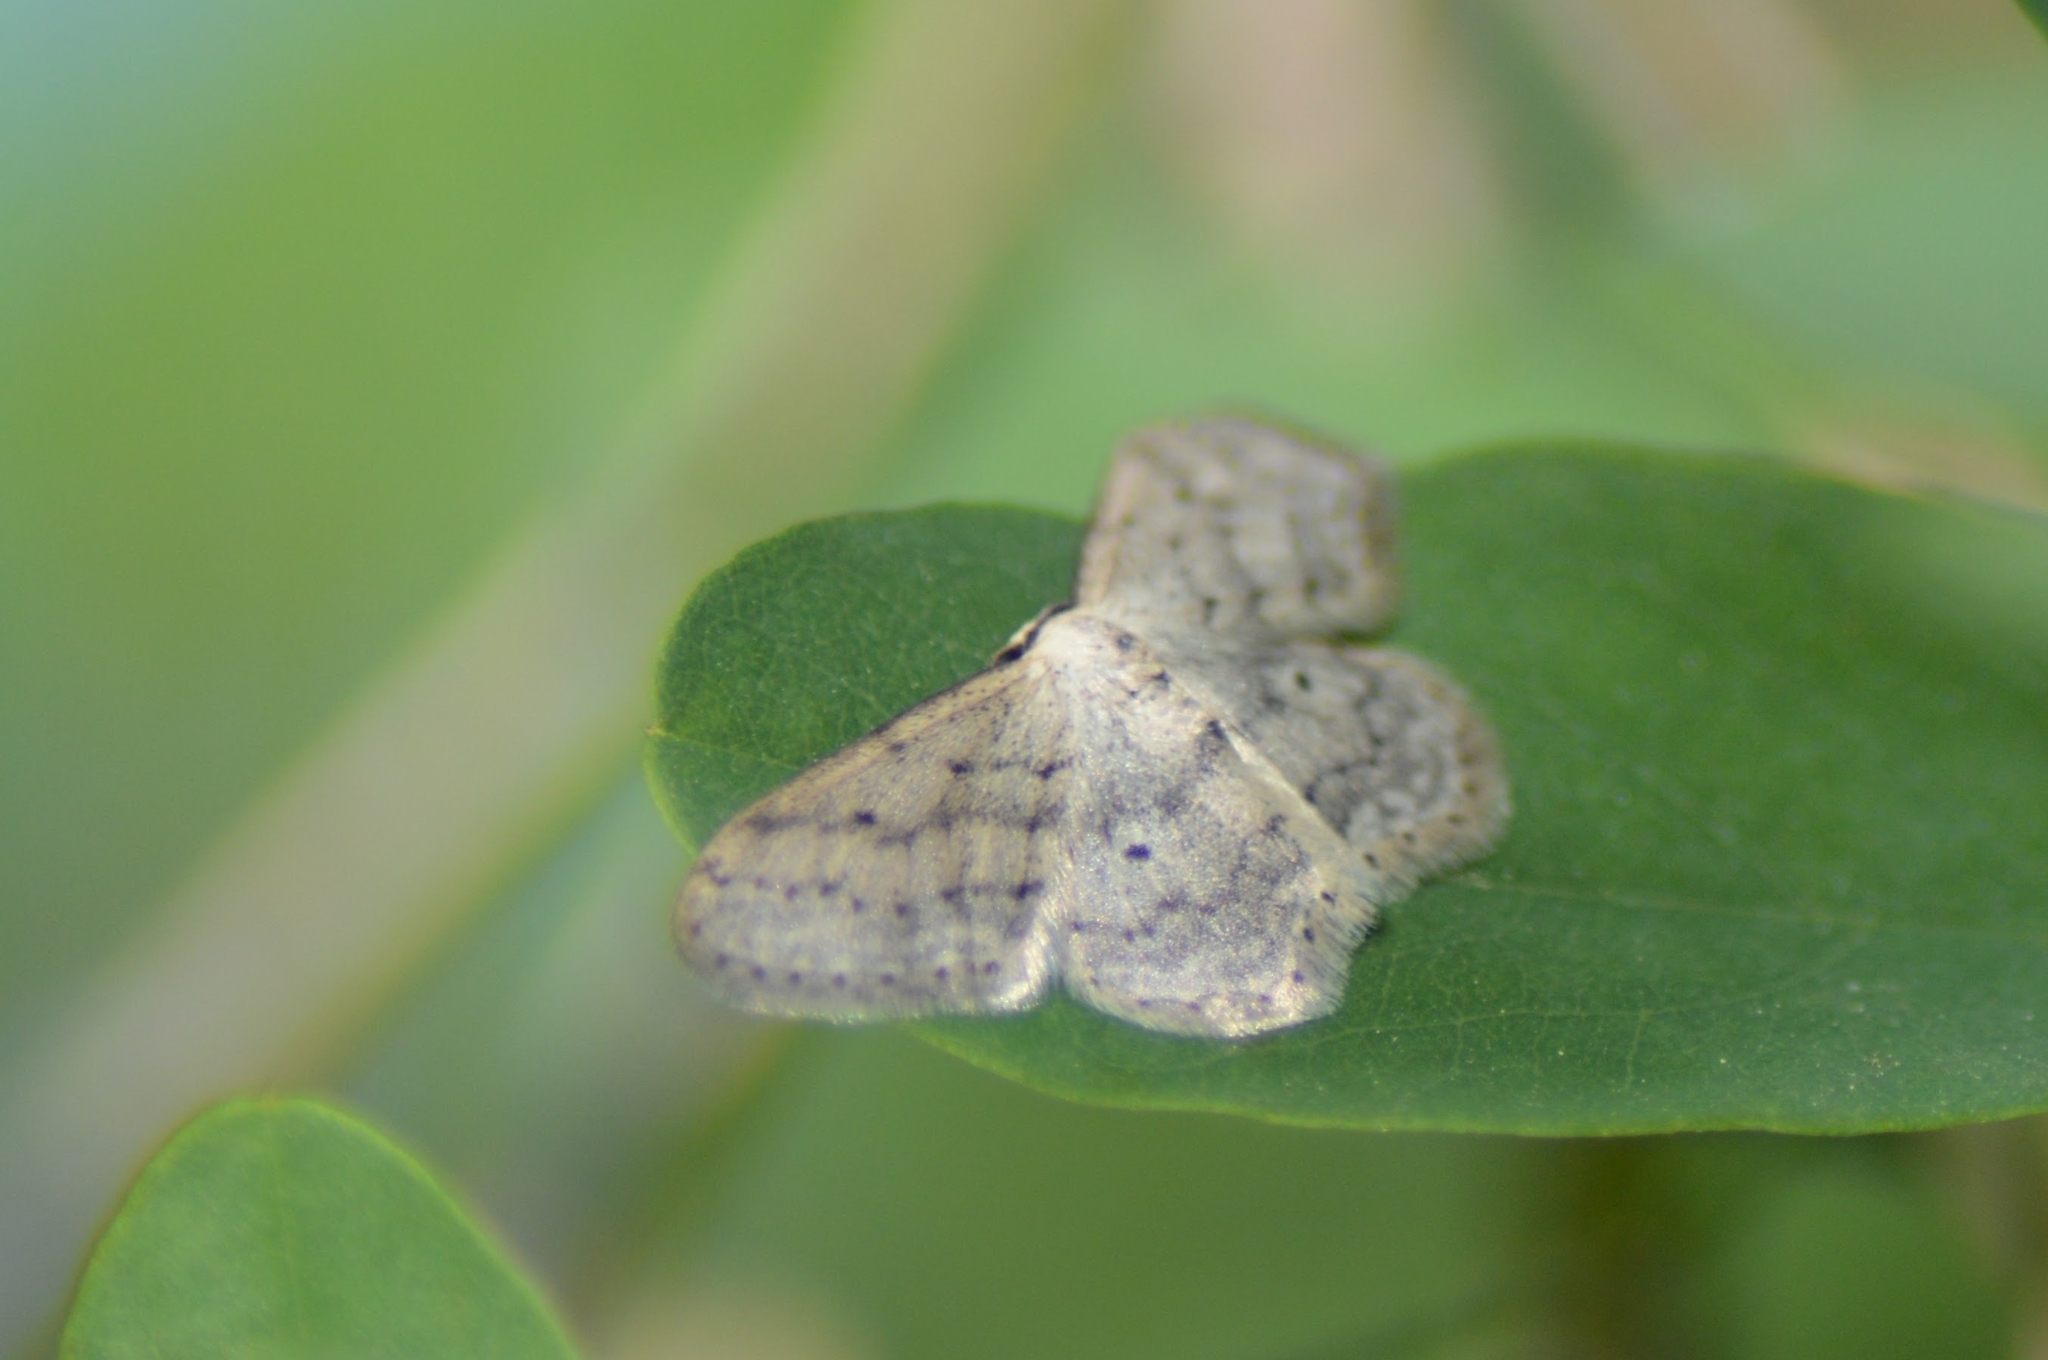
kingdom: Animalia
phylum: Arthropoda
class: Insecta
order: Lepidoptera
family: Geometridae
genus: Idaea
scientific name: Idaea seriata
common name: Small dusty wave
